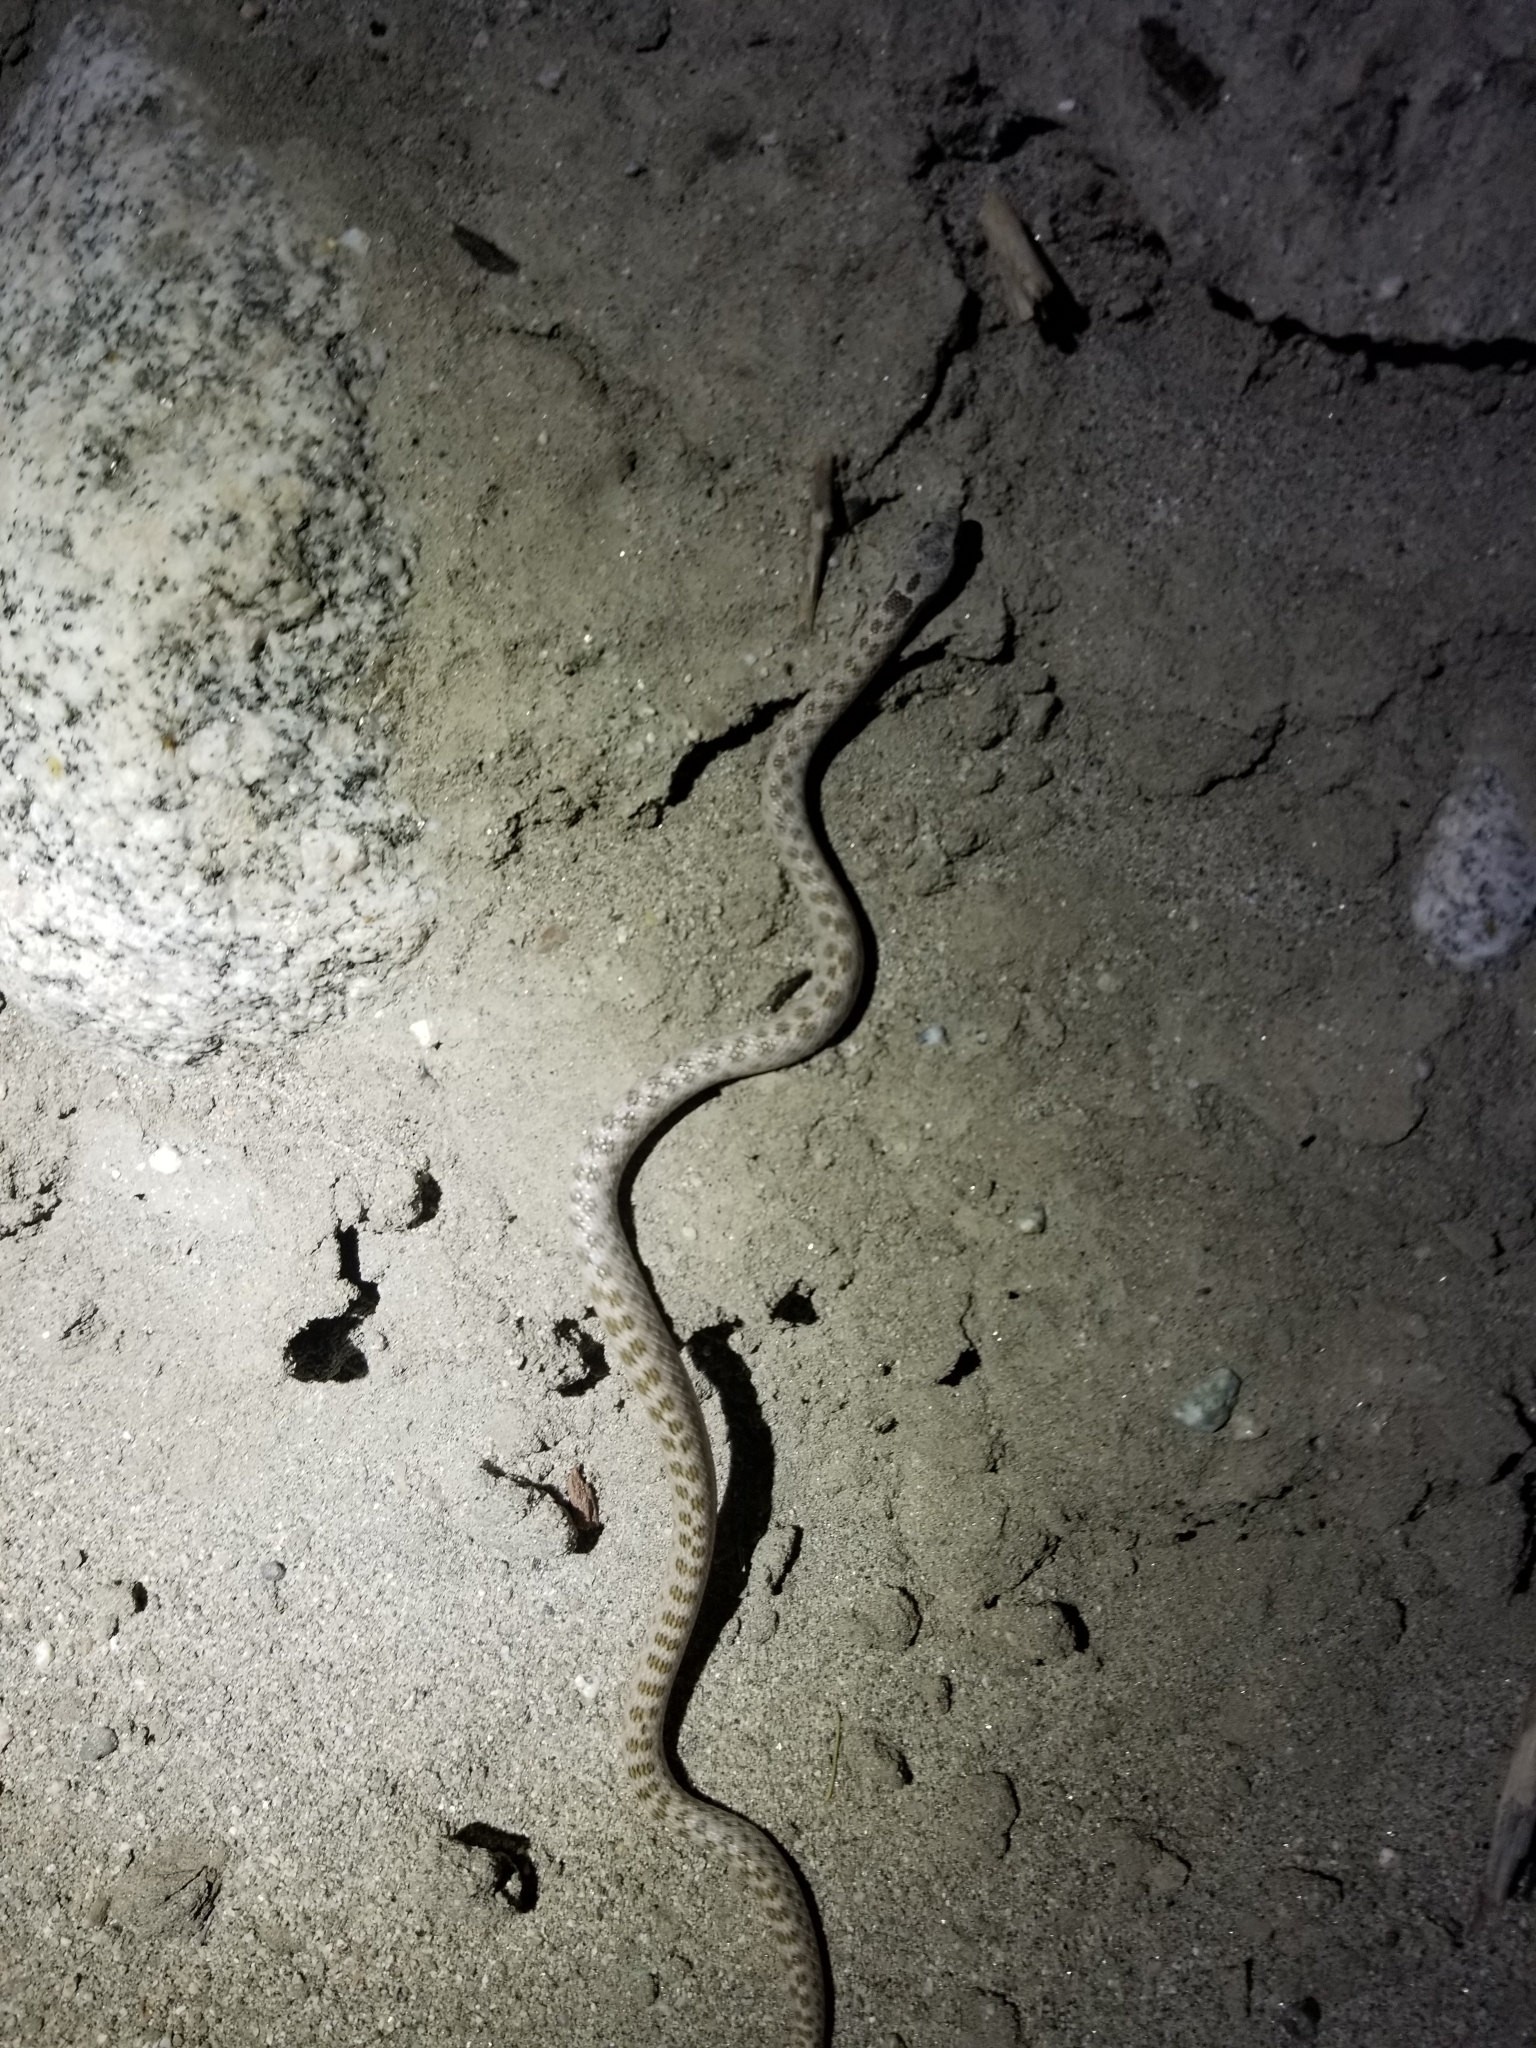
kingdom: Animalia
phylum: Chordata
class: Squamata
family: Colubridae
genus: Hypsiglena
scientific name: Hypsiglena chlorophaea
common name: Desert nightsnake
